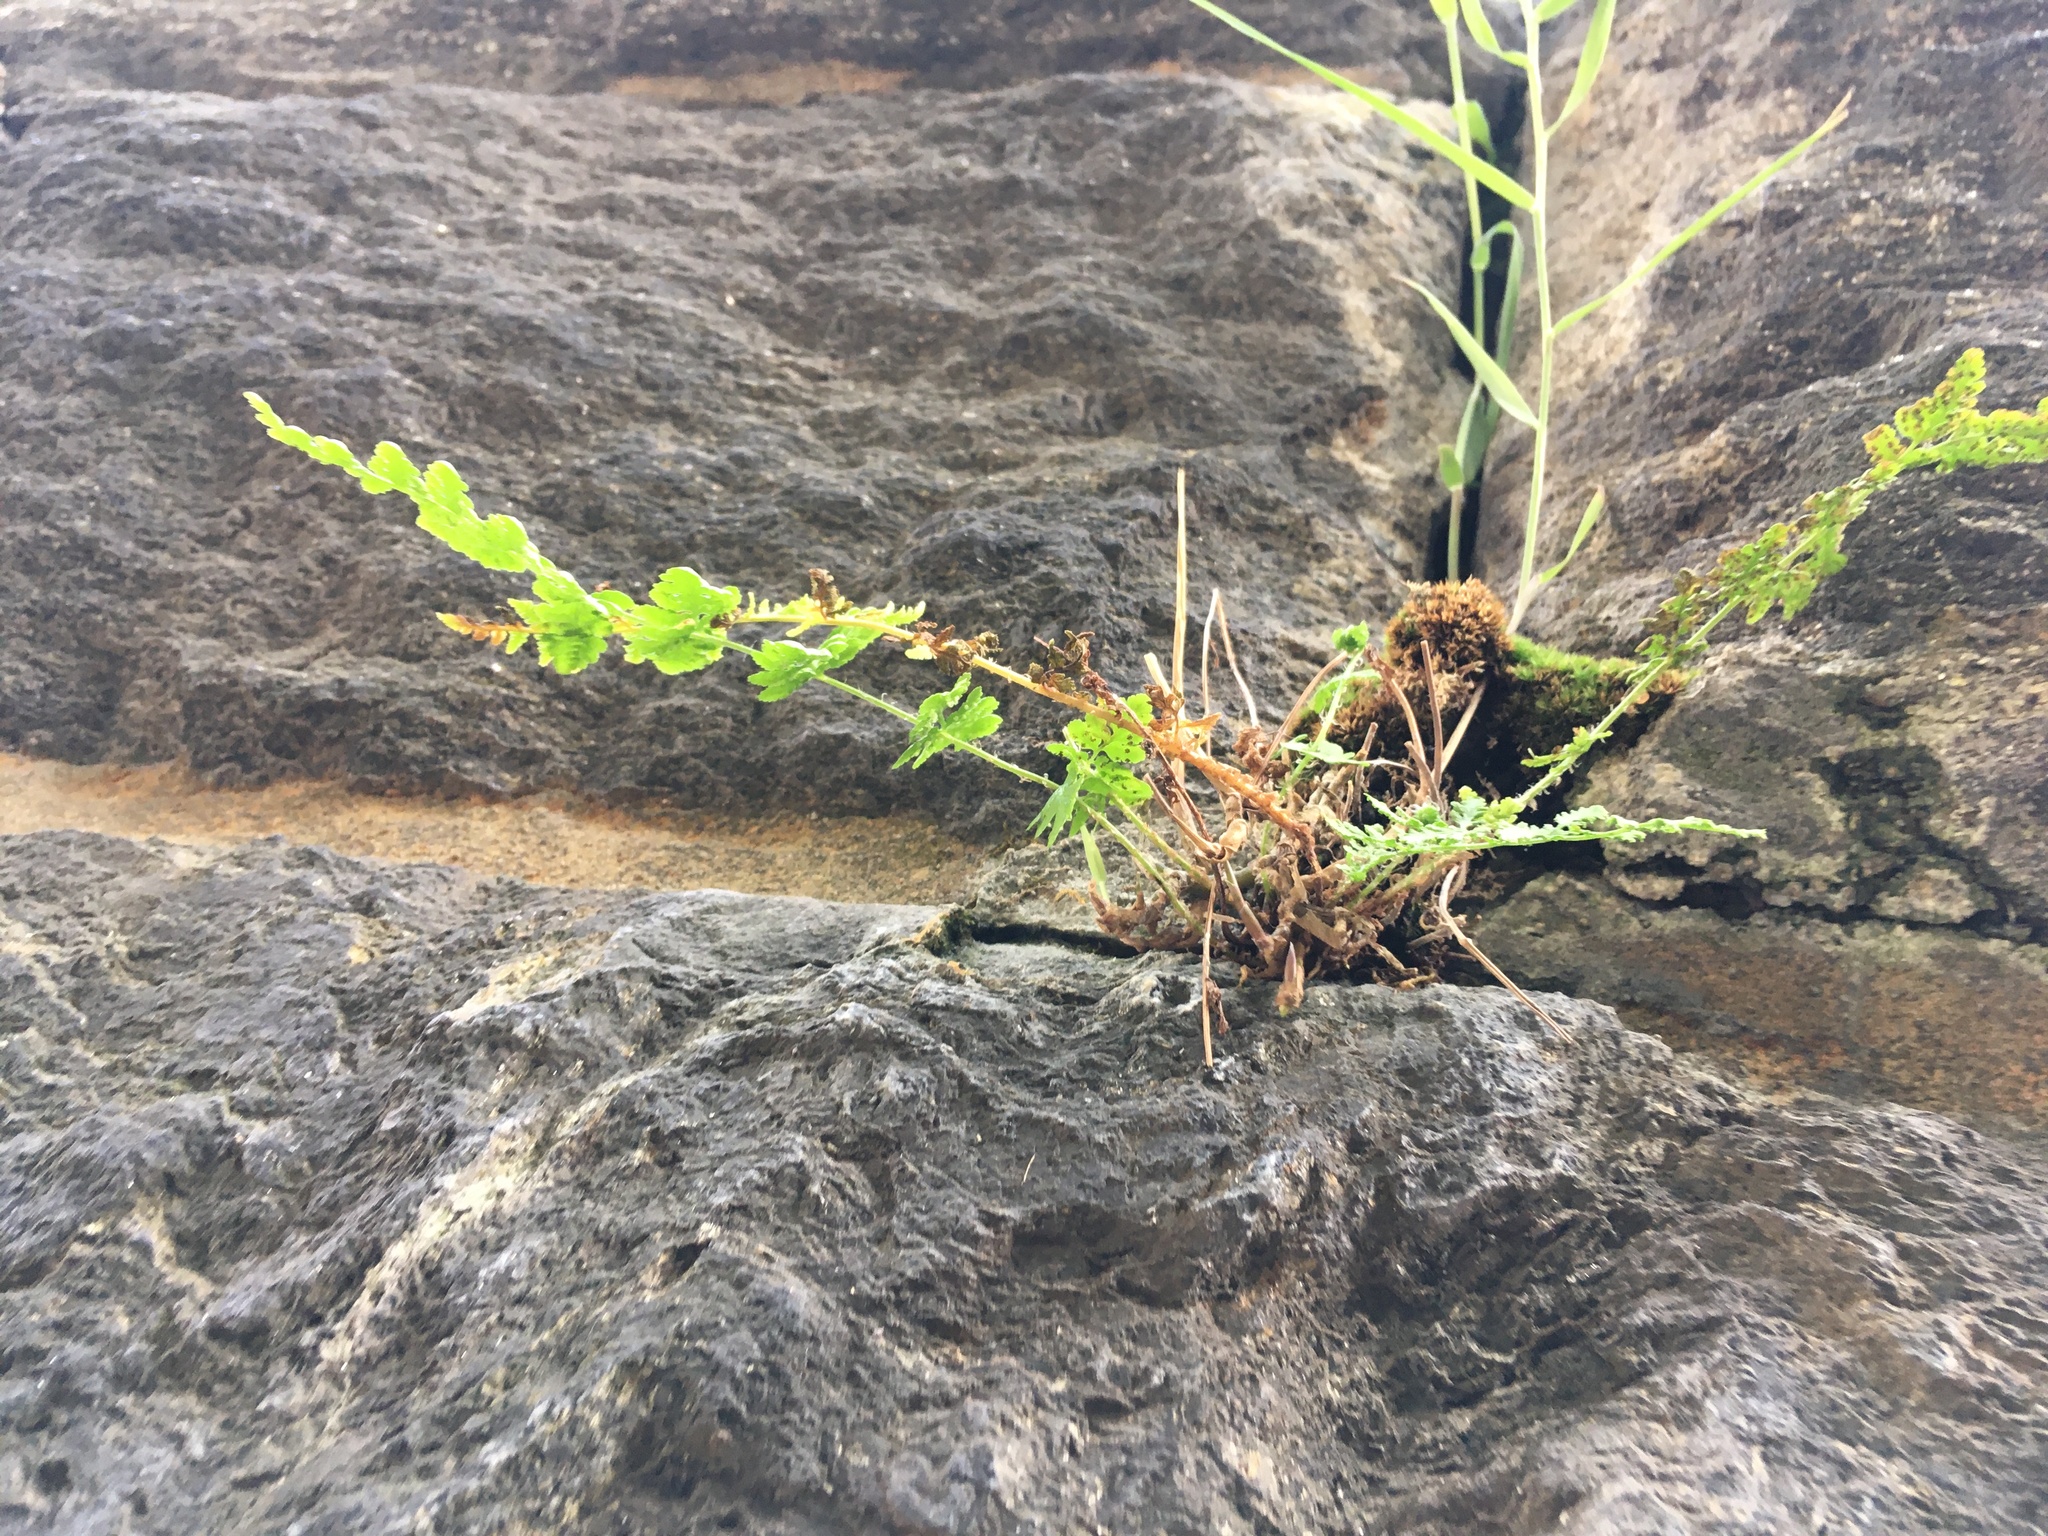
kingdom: Plantae
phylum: Tracheophyta
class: Polypodiopsida
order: Polypodiales
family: Woodsiaceae
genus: Physematium
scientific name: Physematium obtusum
